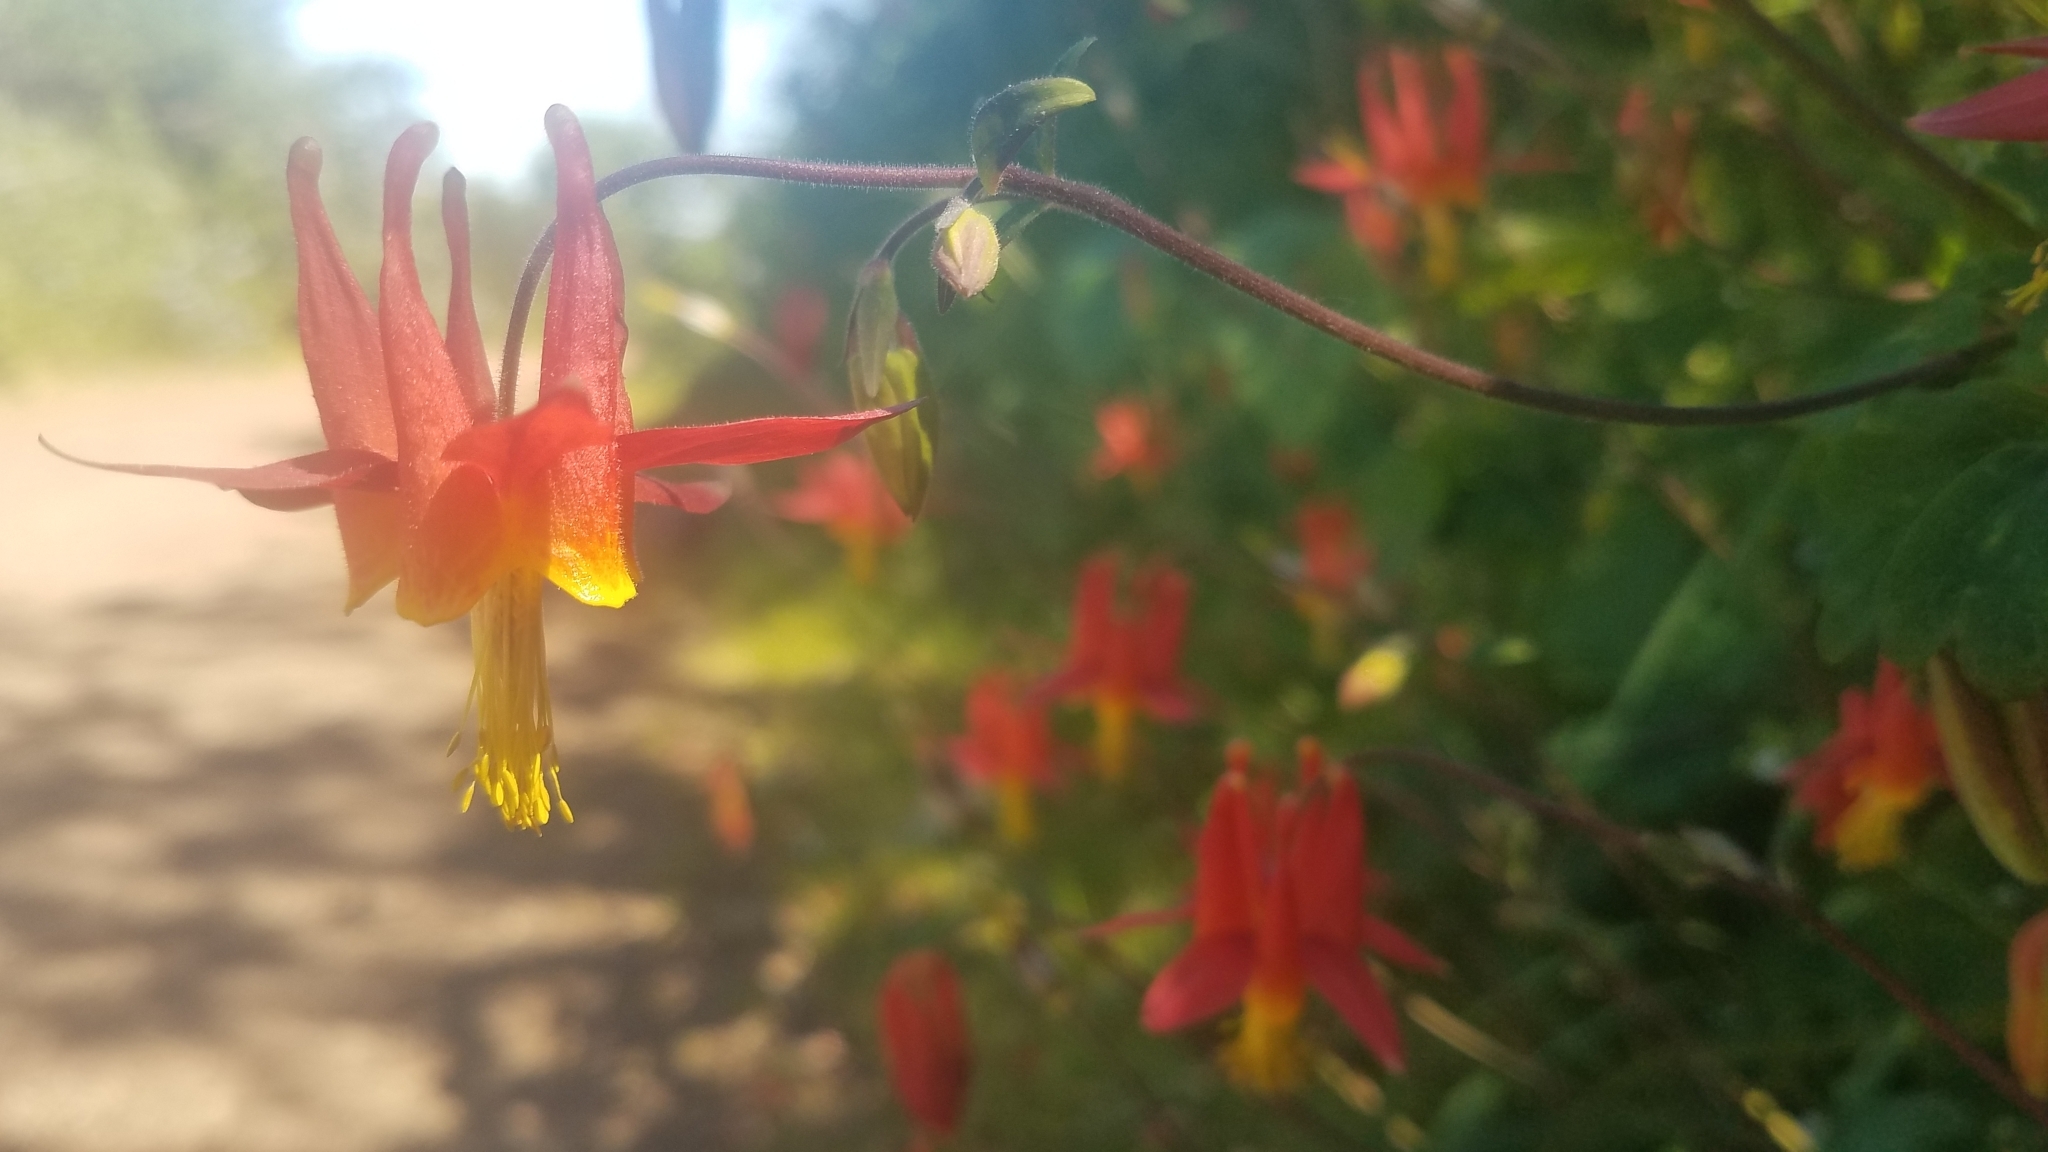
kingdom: Plantae
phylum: Tracheophyta
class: Magnoliopsida
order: Ranunculales
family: Ranunculaceae
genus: Aquilegia
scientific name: Aquilegia formosa
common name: Sitka columbine
